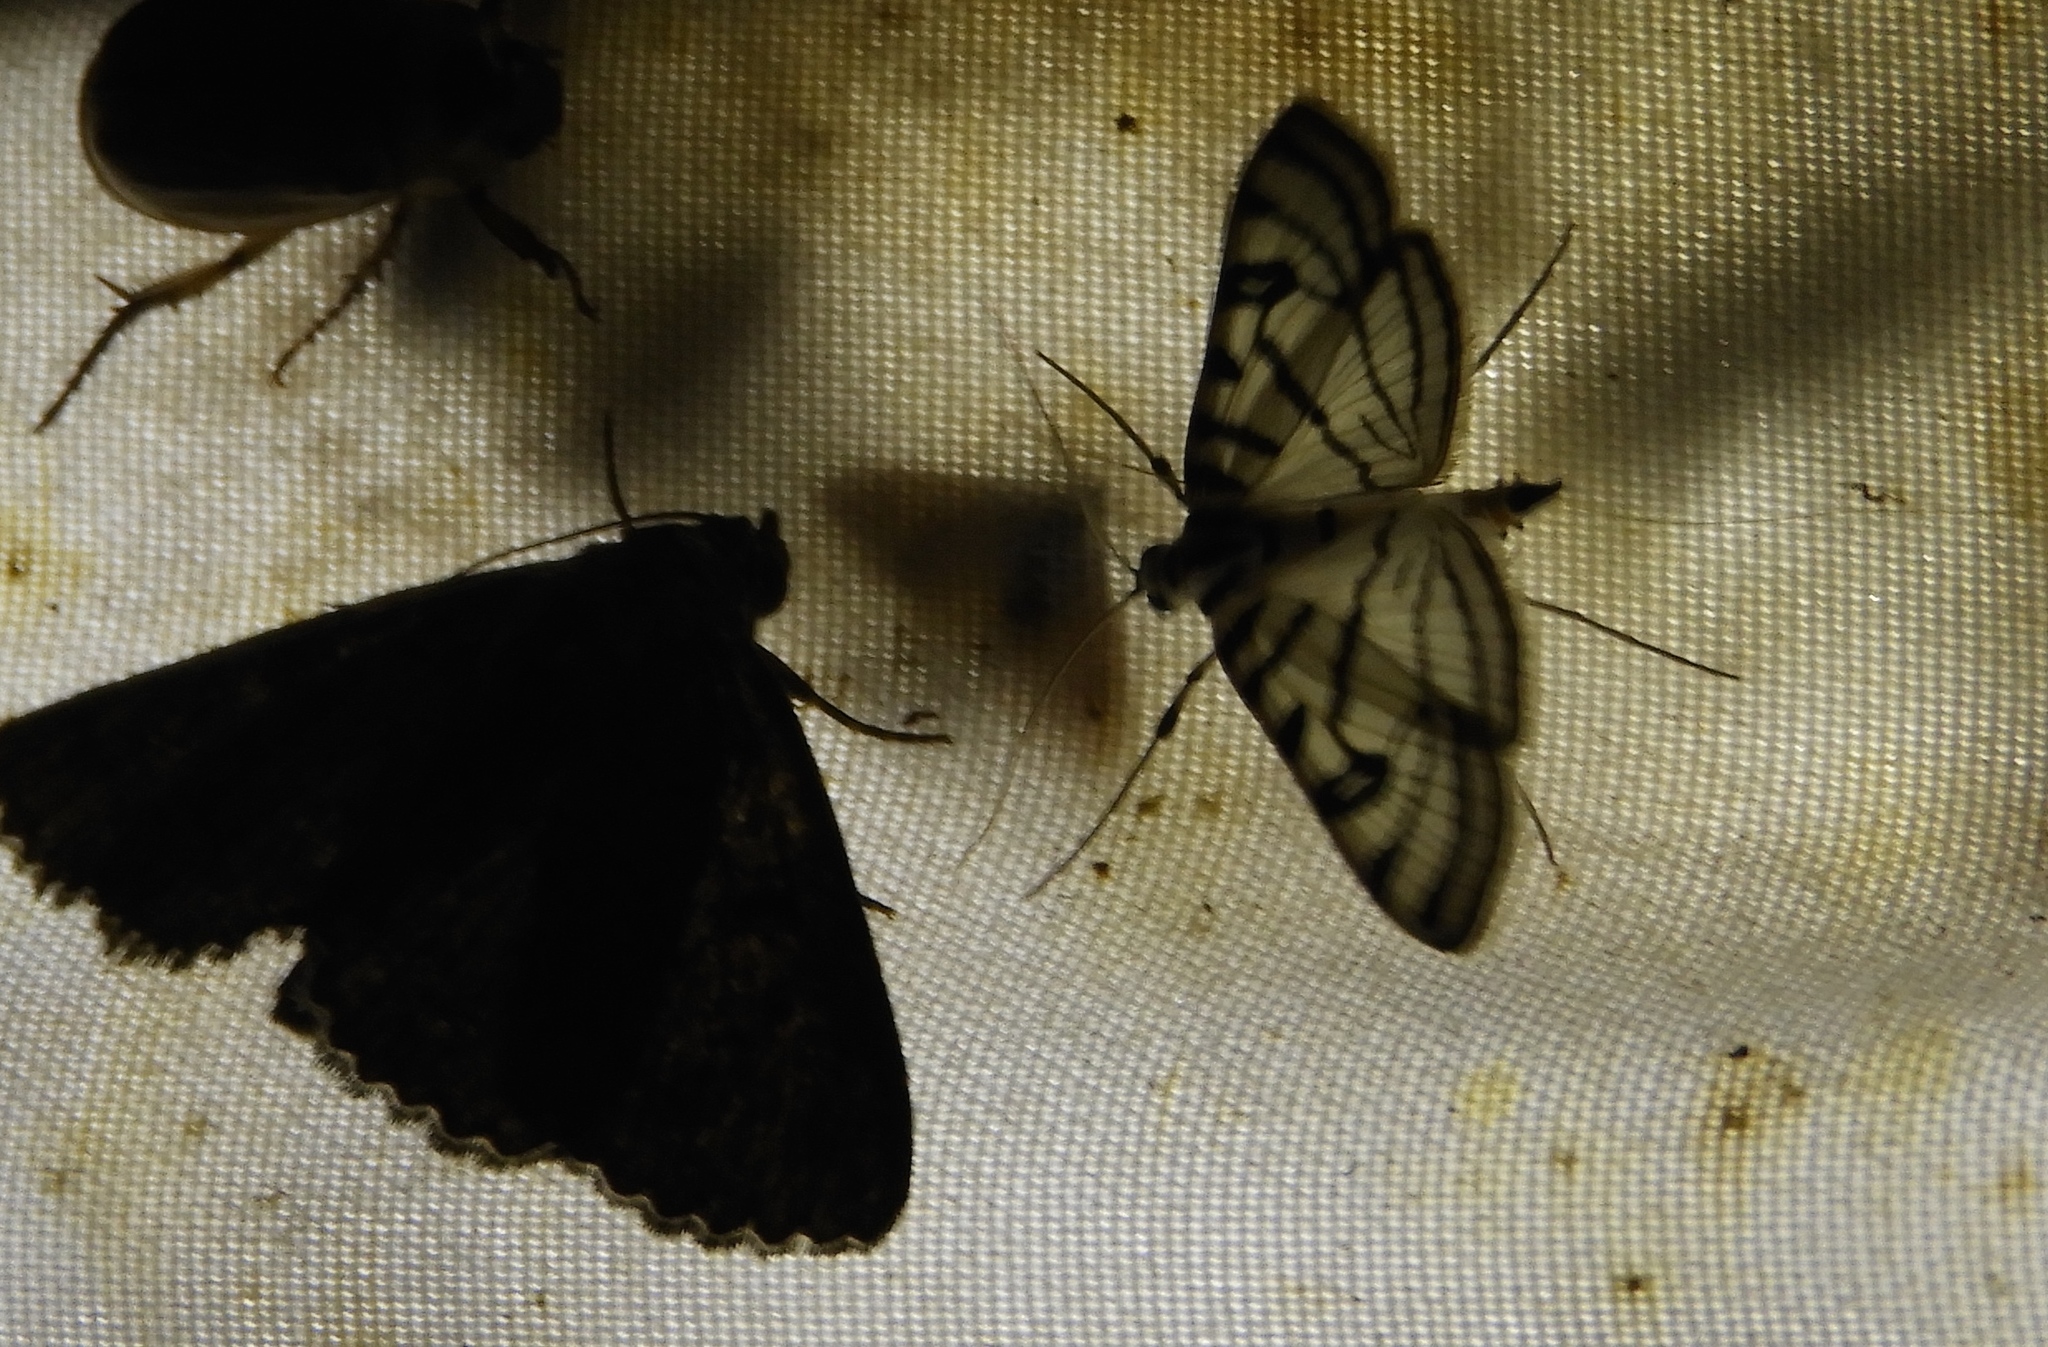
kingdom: Animalia
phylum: Arthropoda
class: Insecta
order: Lepidoptera
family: Crambidae
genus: Conchylodes
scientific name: Conchylodes
